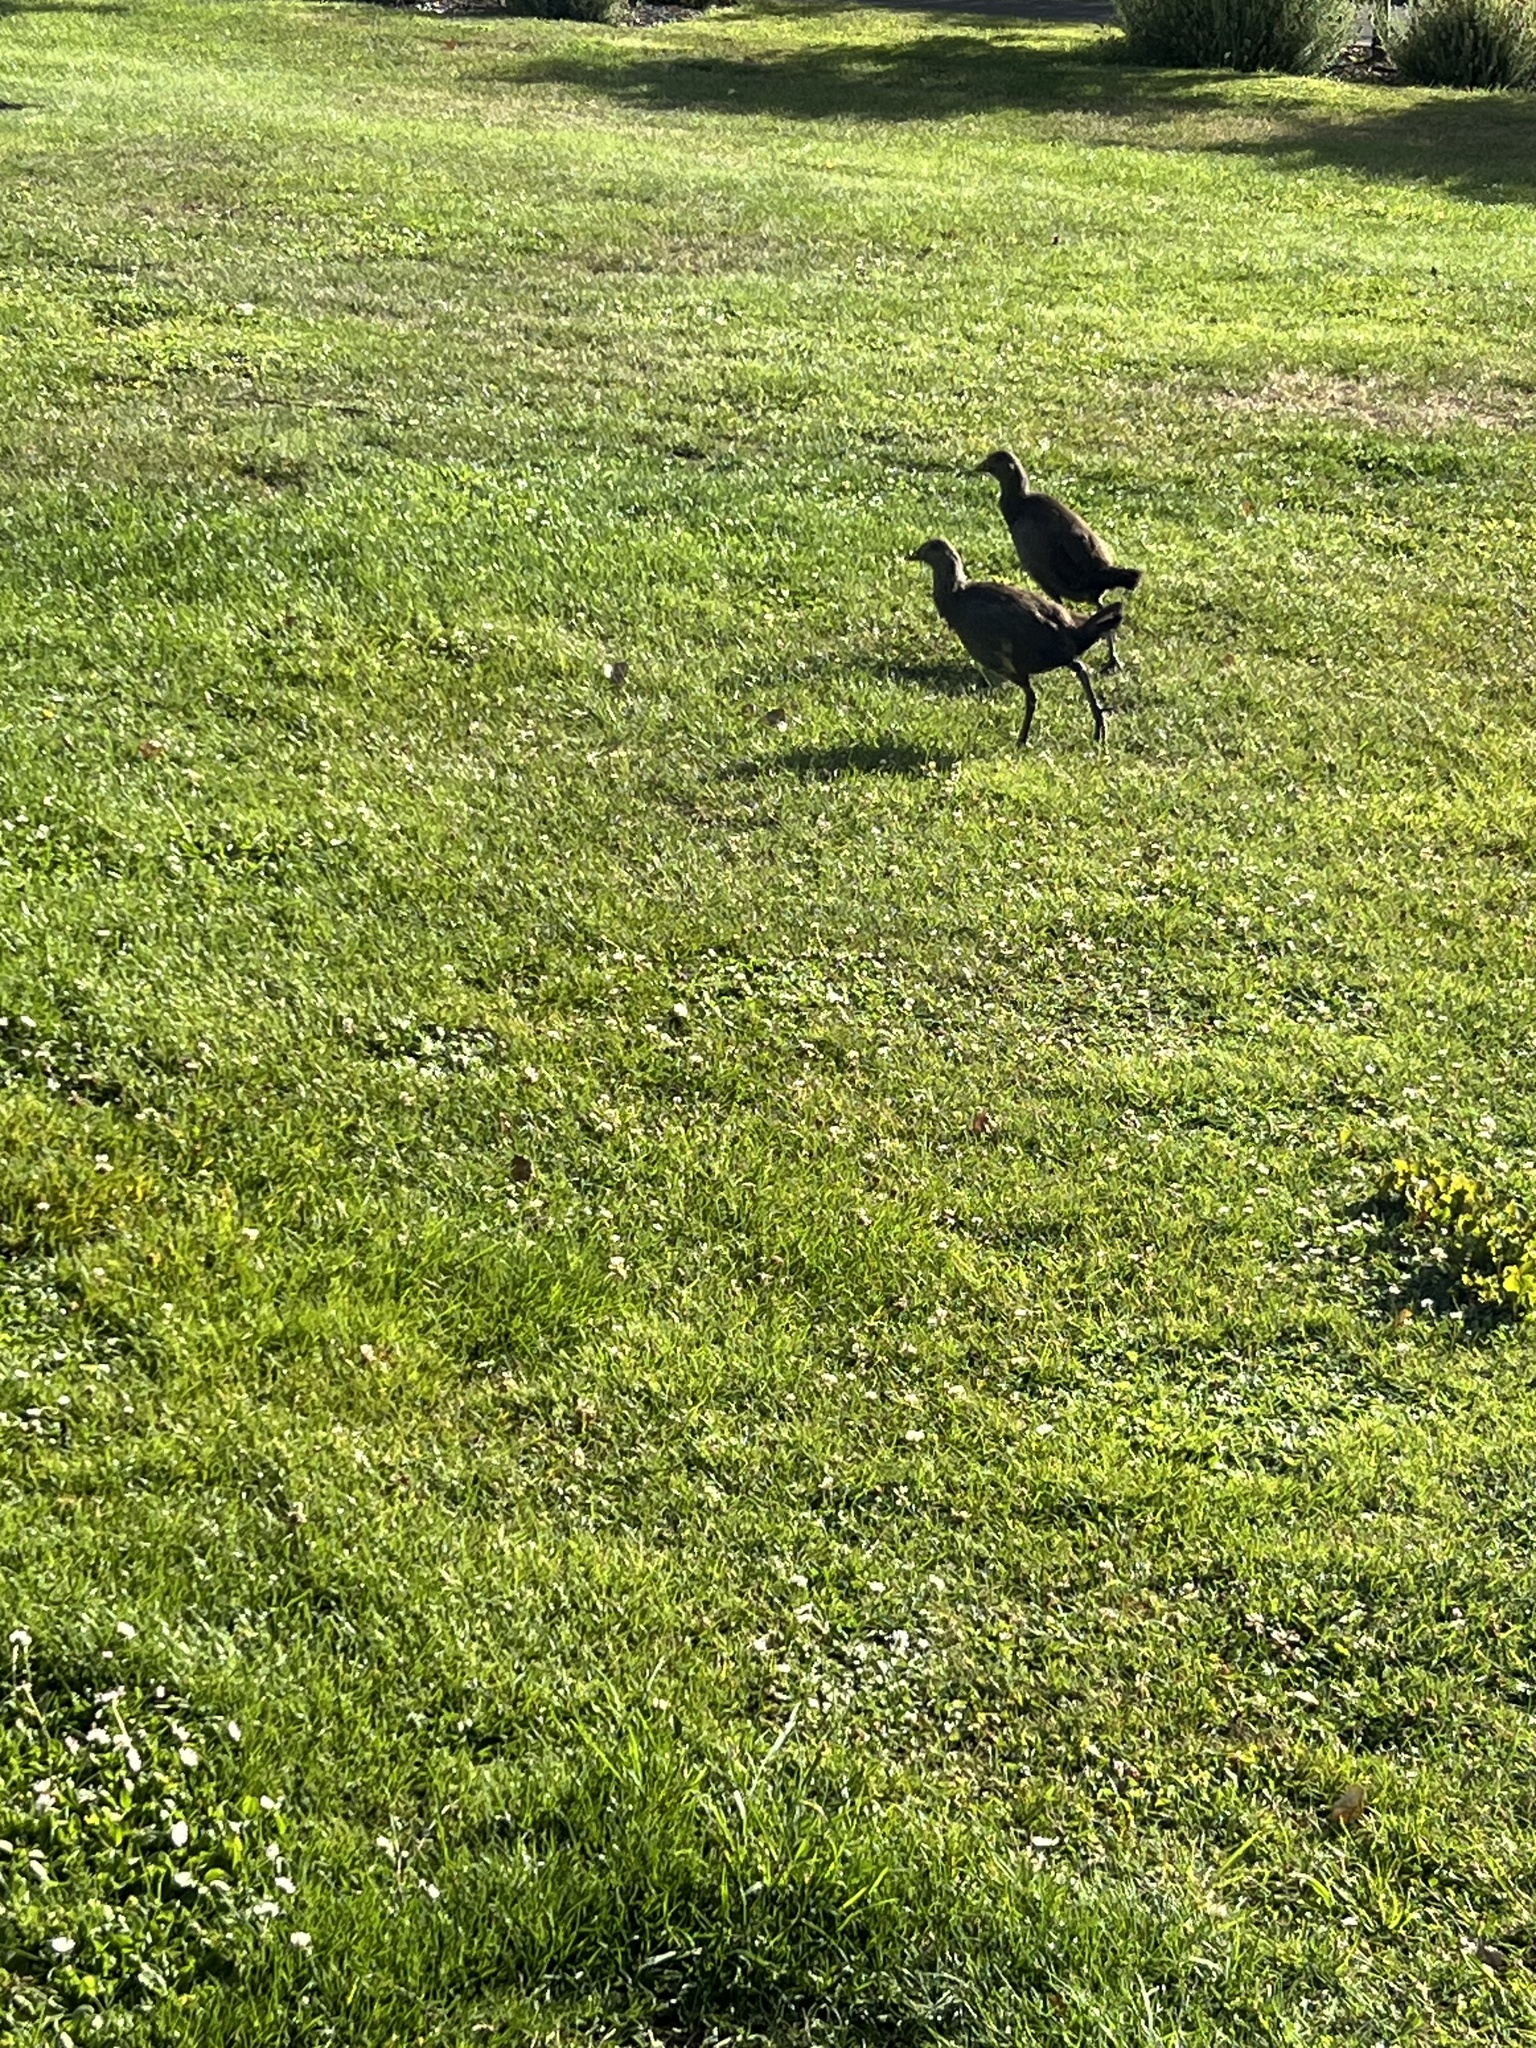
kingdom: Animalia
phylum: Chordata
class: Aves
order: Gruiformes
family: Rallidae
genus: Gallinula
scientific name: Gallinula mortierii
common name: Tasmanian nativehen
